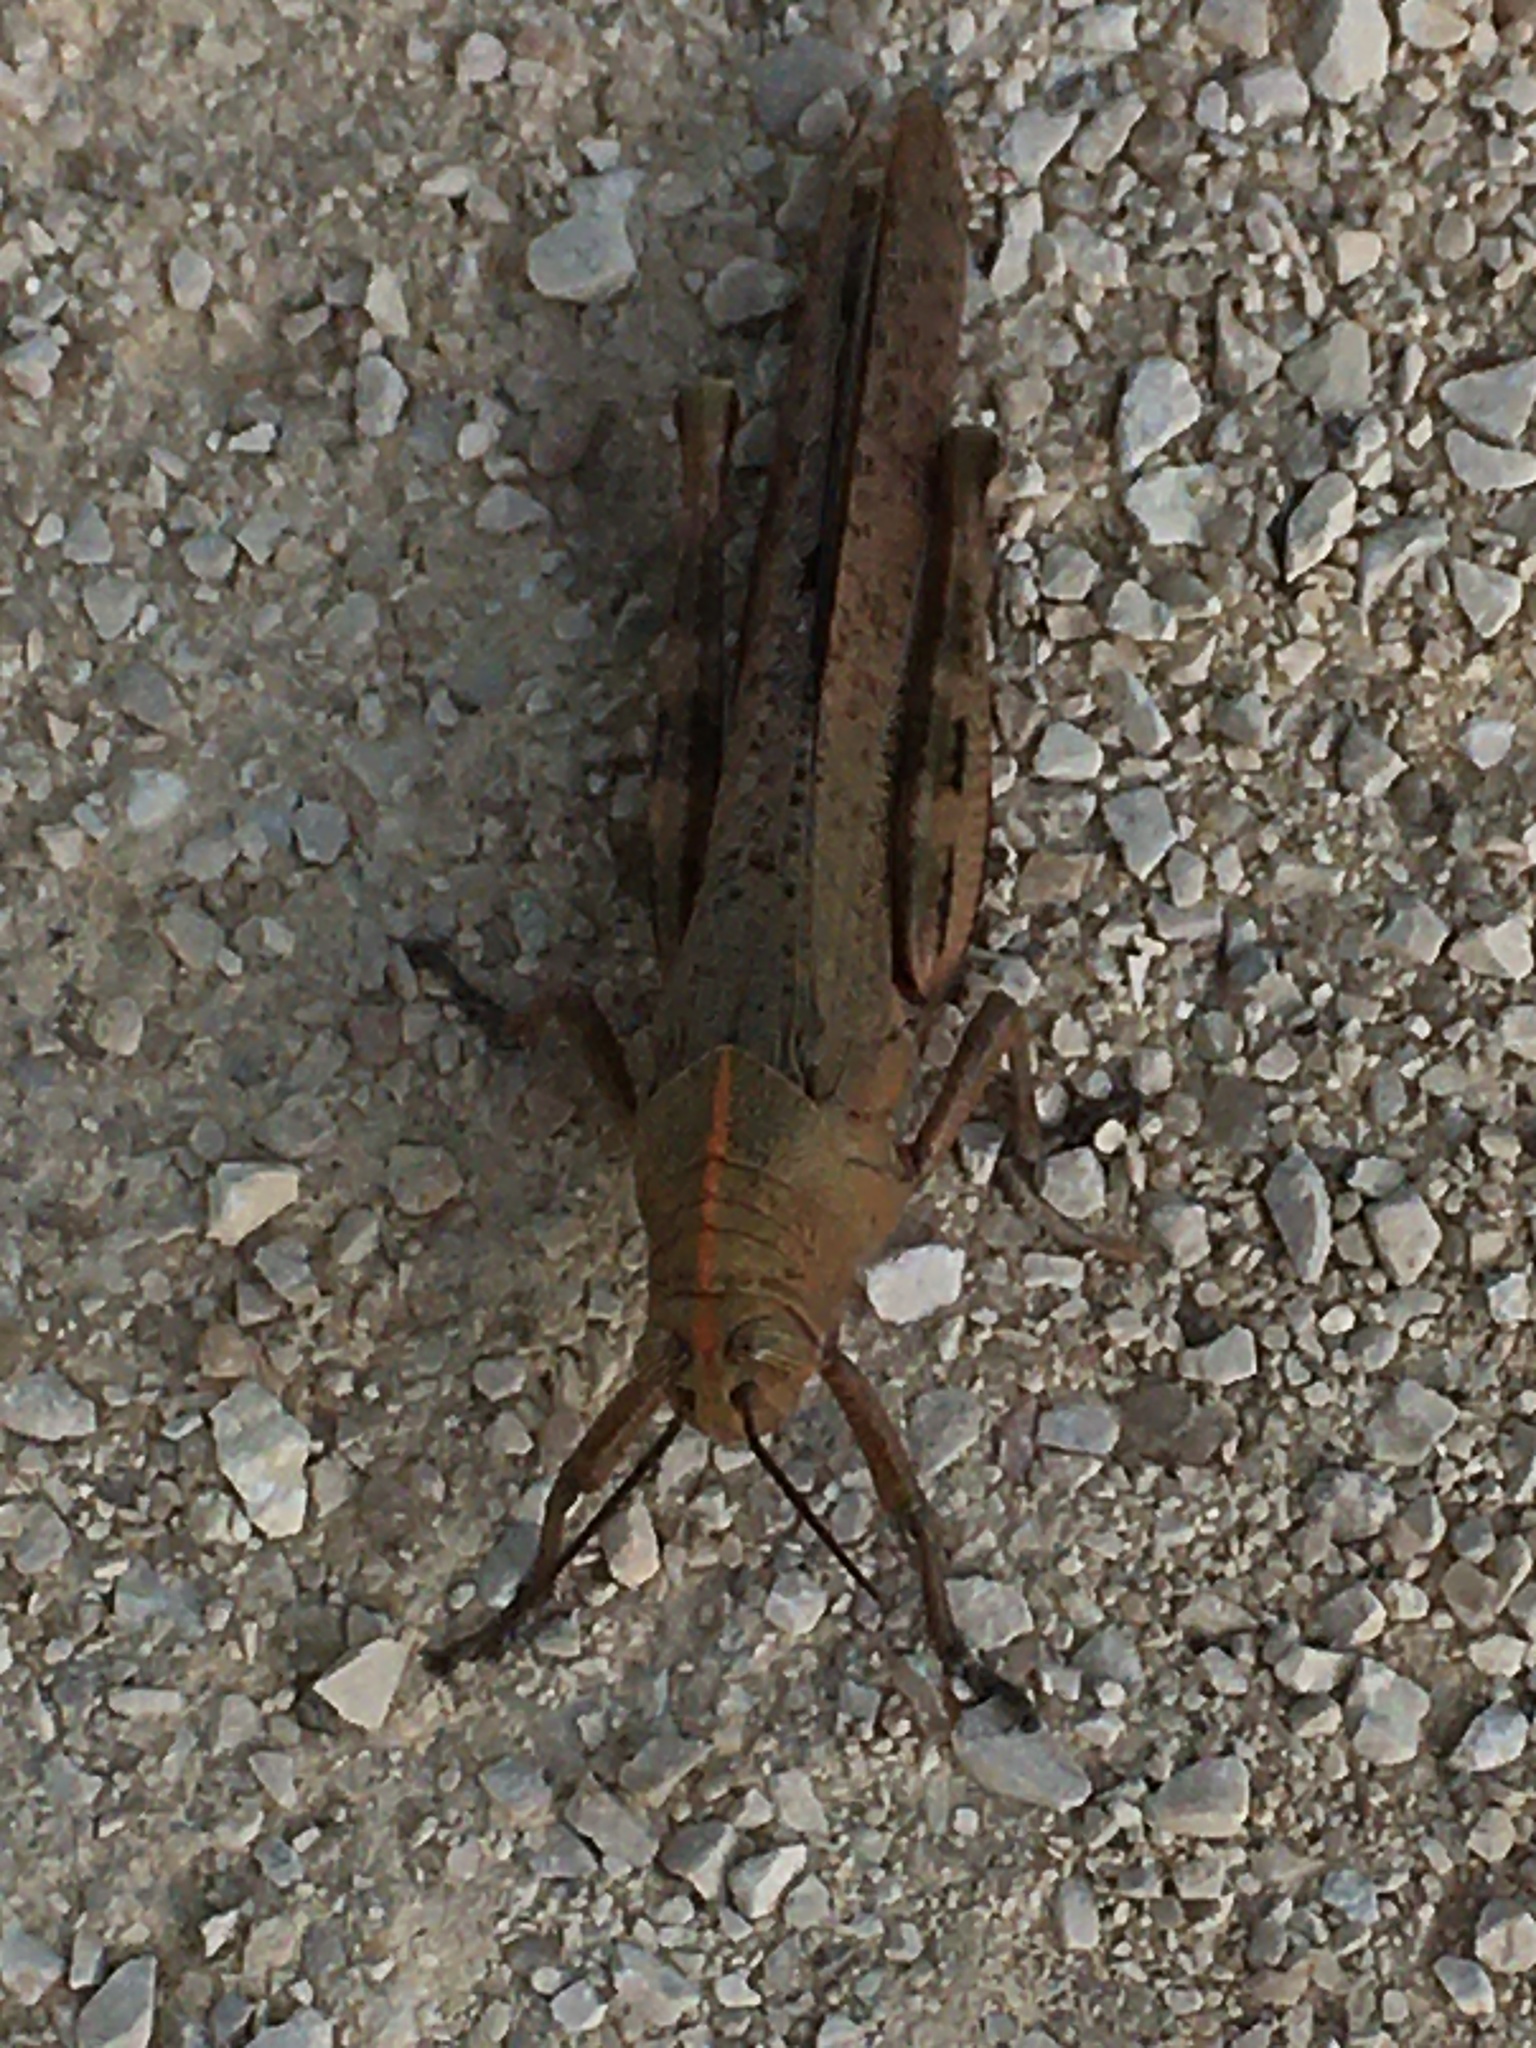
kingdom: Animalia
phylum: Arthropoda
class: Insecta
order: Orthoptera
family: Acrididae
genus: Anacridium
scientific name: Anacridium aegyptium
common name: Egyptian grasshopper
